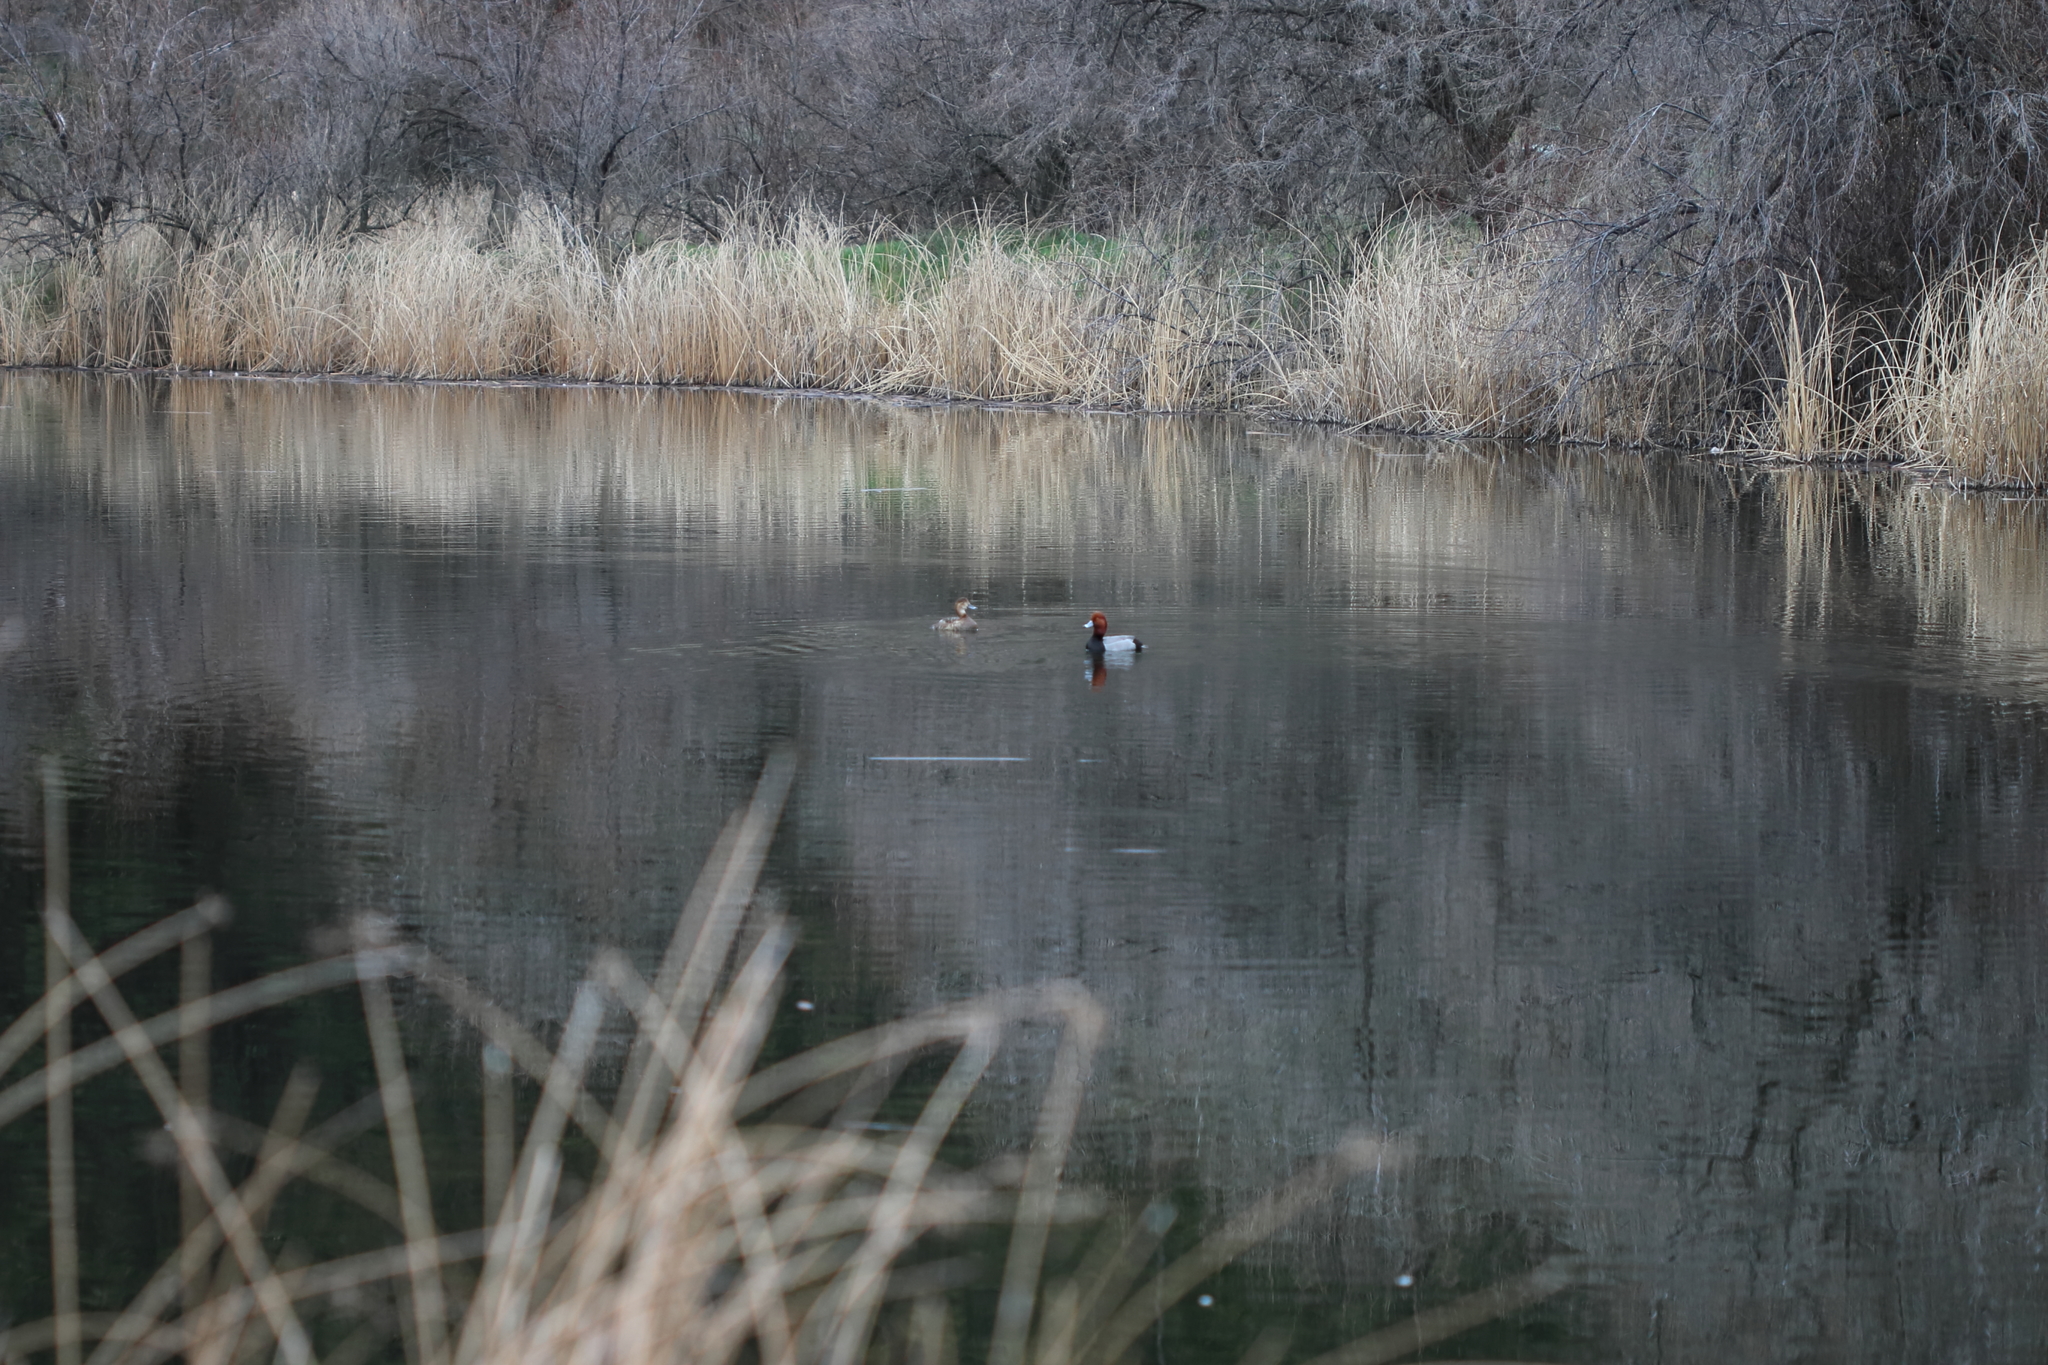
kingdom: Animalia
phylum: Chordata
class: Aves
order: Anseriformes
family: Anatidae
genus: Aythya
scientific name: Aythya americana
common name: Redhead
